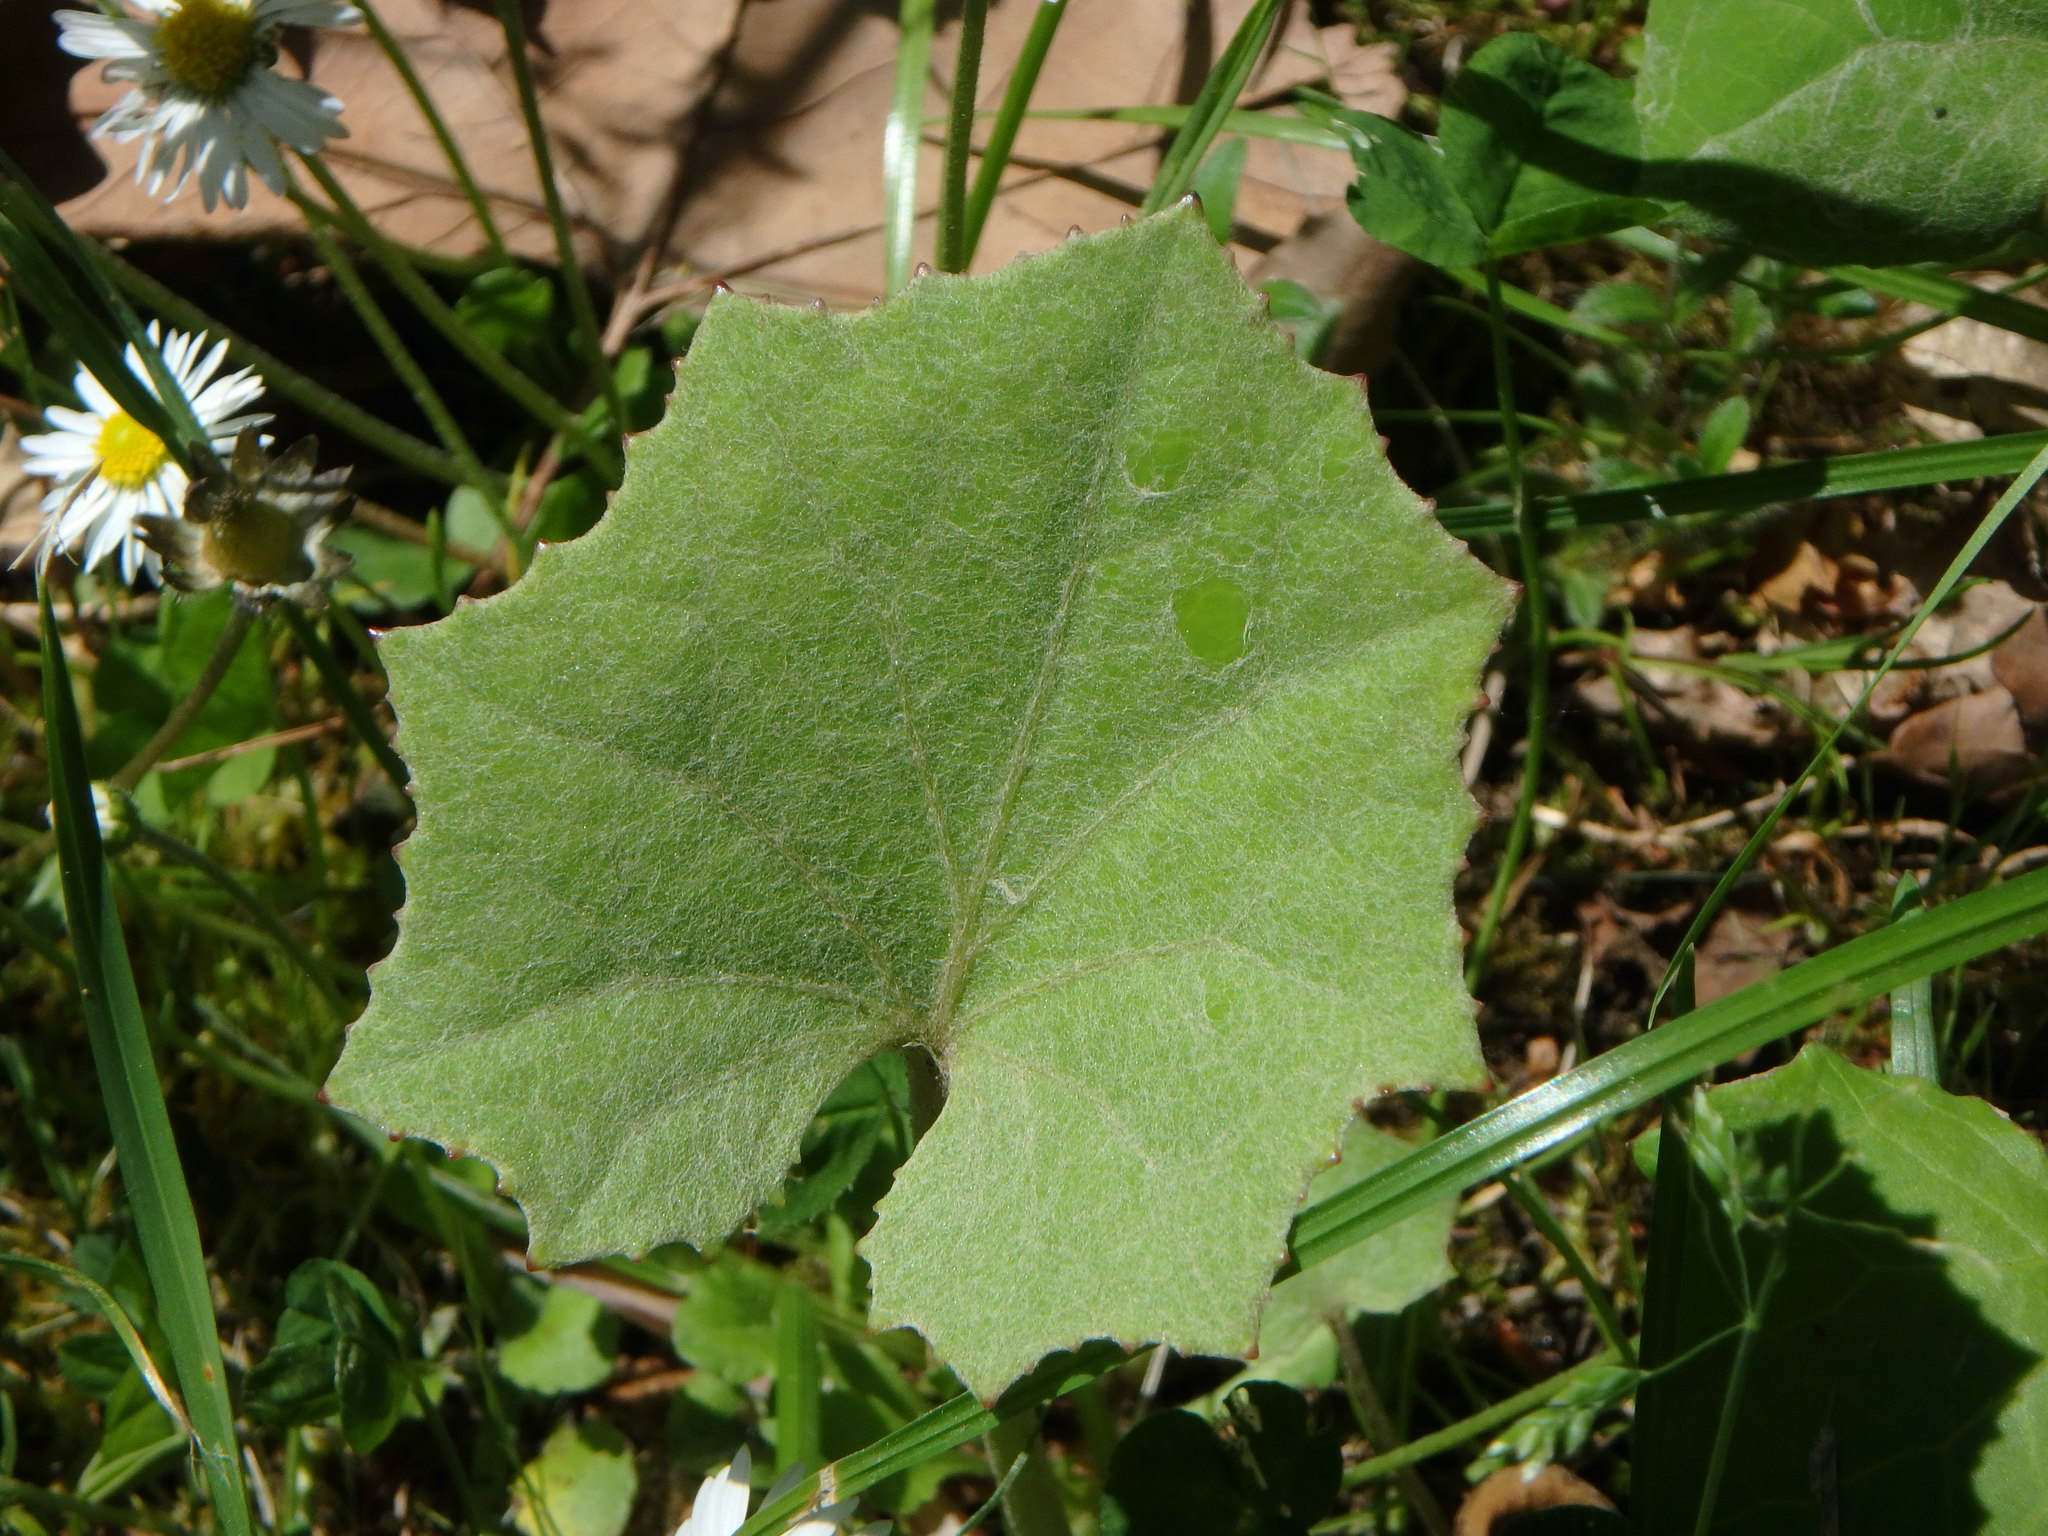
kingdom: Plantae
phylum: Tracheophyta
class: Magnoliopsida
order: Asterales
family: Asteraceae
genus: Tussilago
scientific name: Tussilago farfara
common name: Coltsfoot
